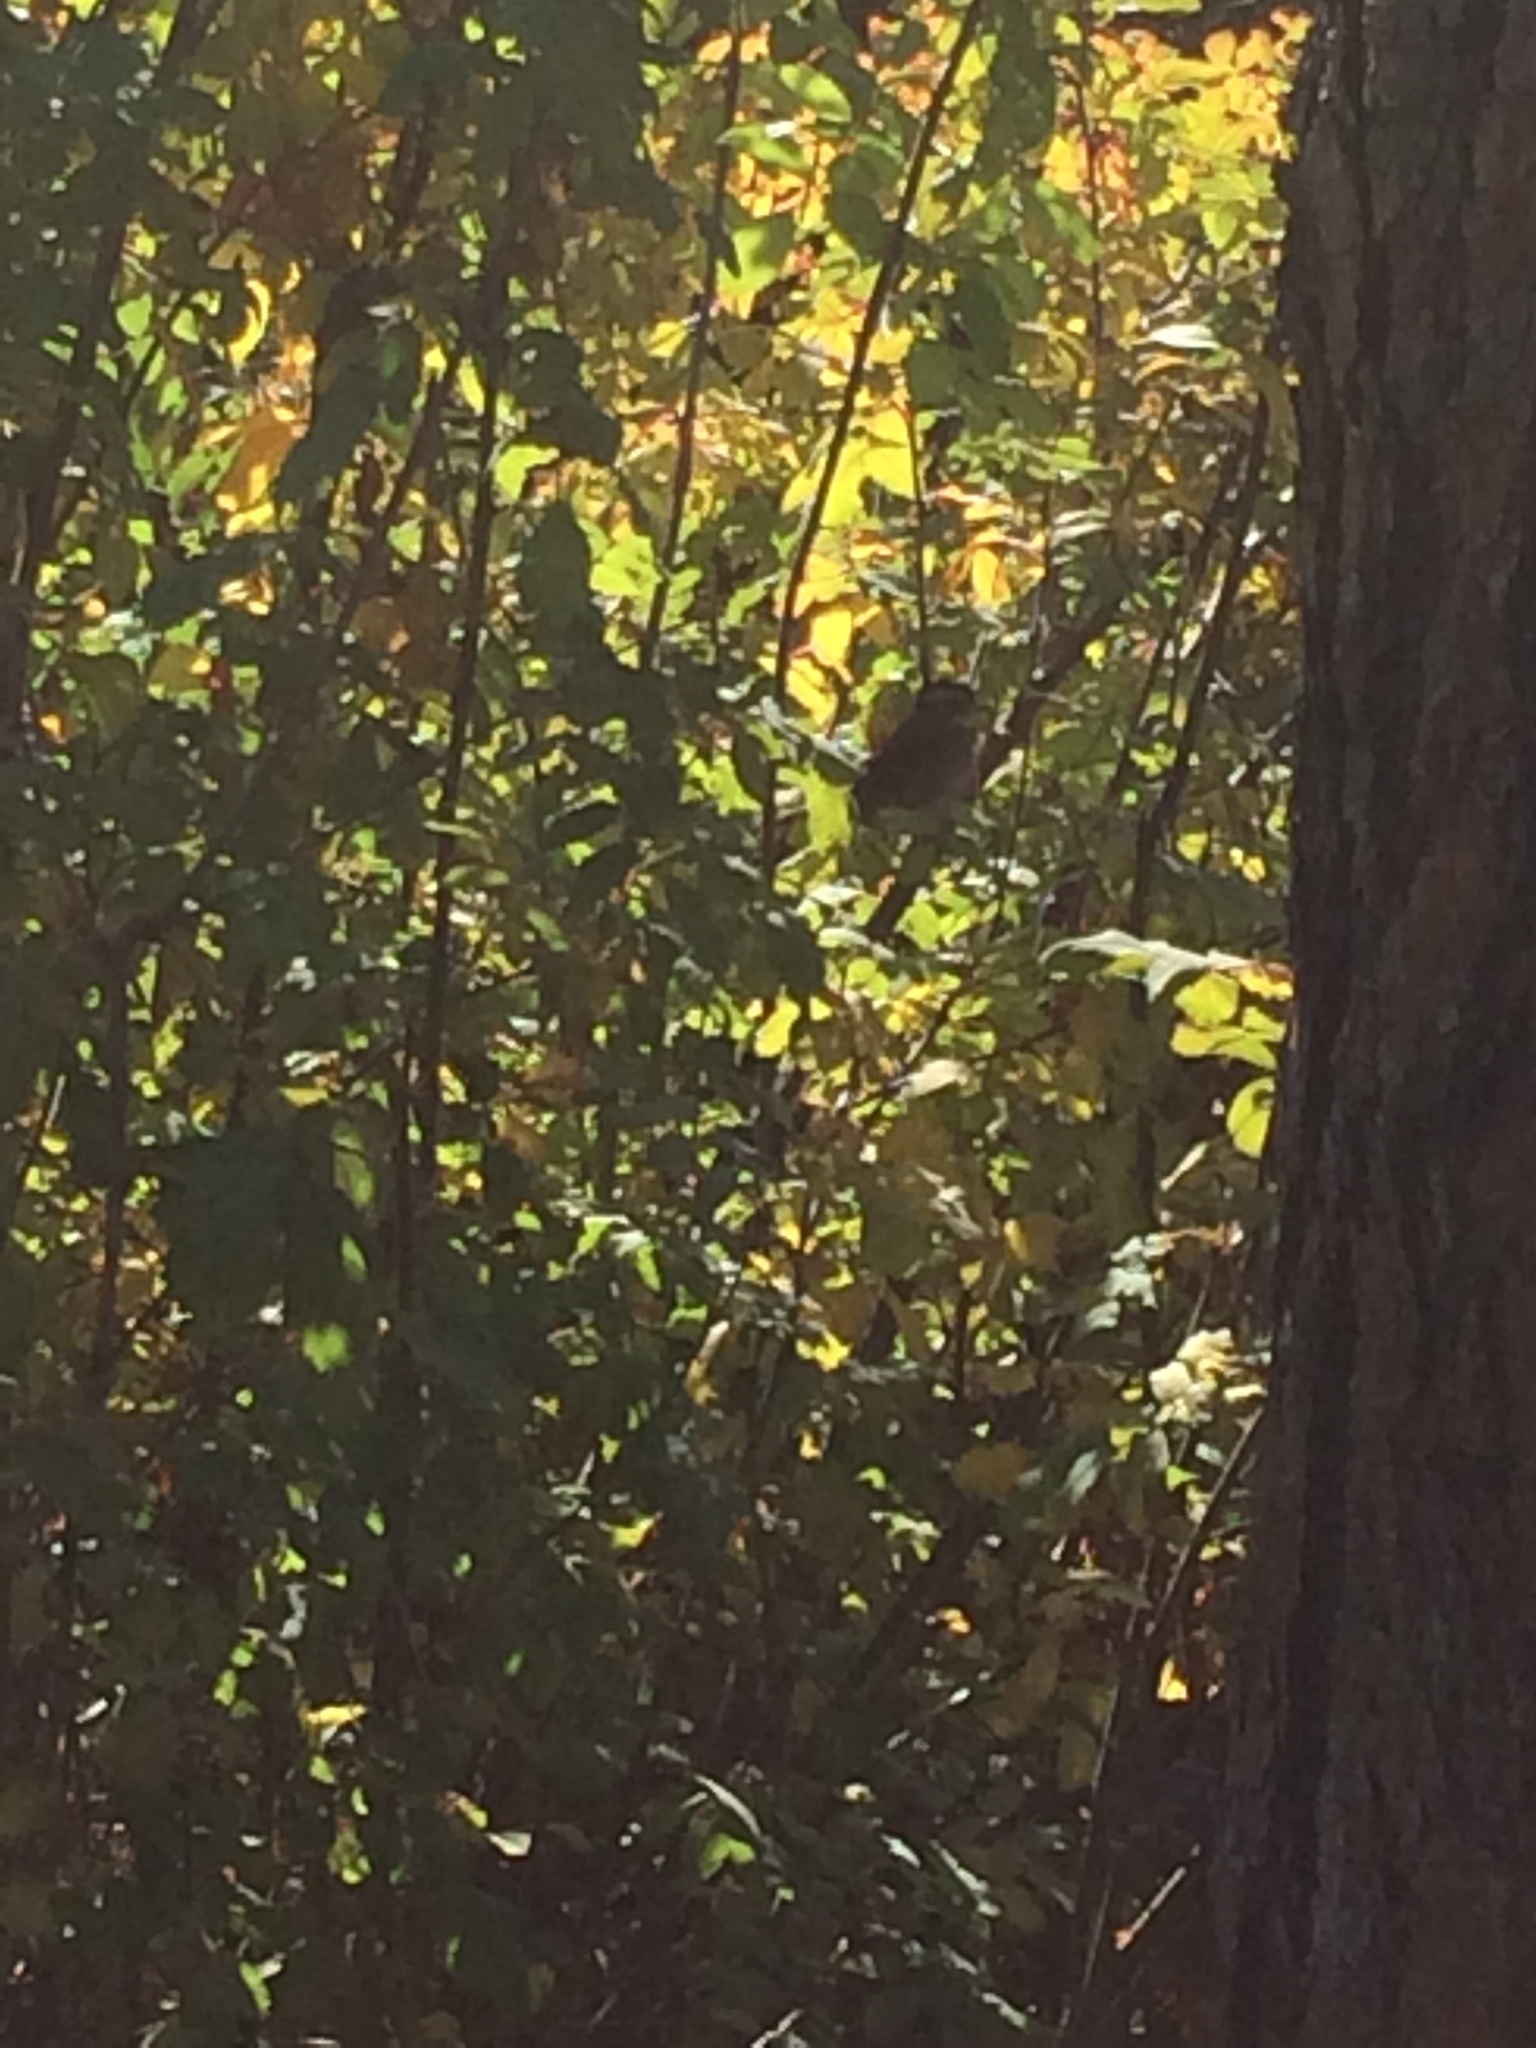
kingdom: Animalia
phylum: Chordata
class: Aves
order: Passeriformes
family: Passerellidae
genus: Zonotrichia
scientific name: Zonotrichia albicollis
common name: White-throated sparrow
